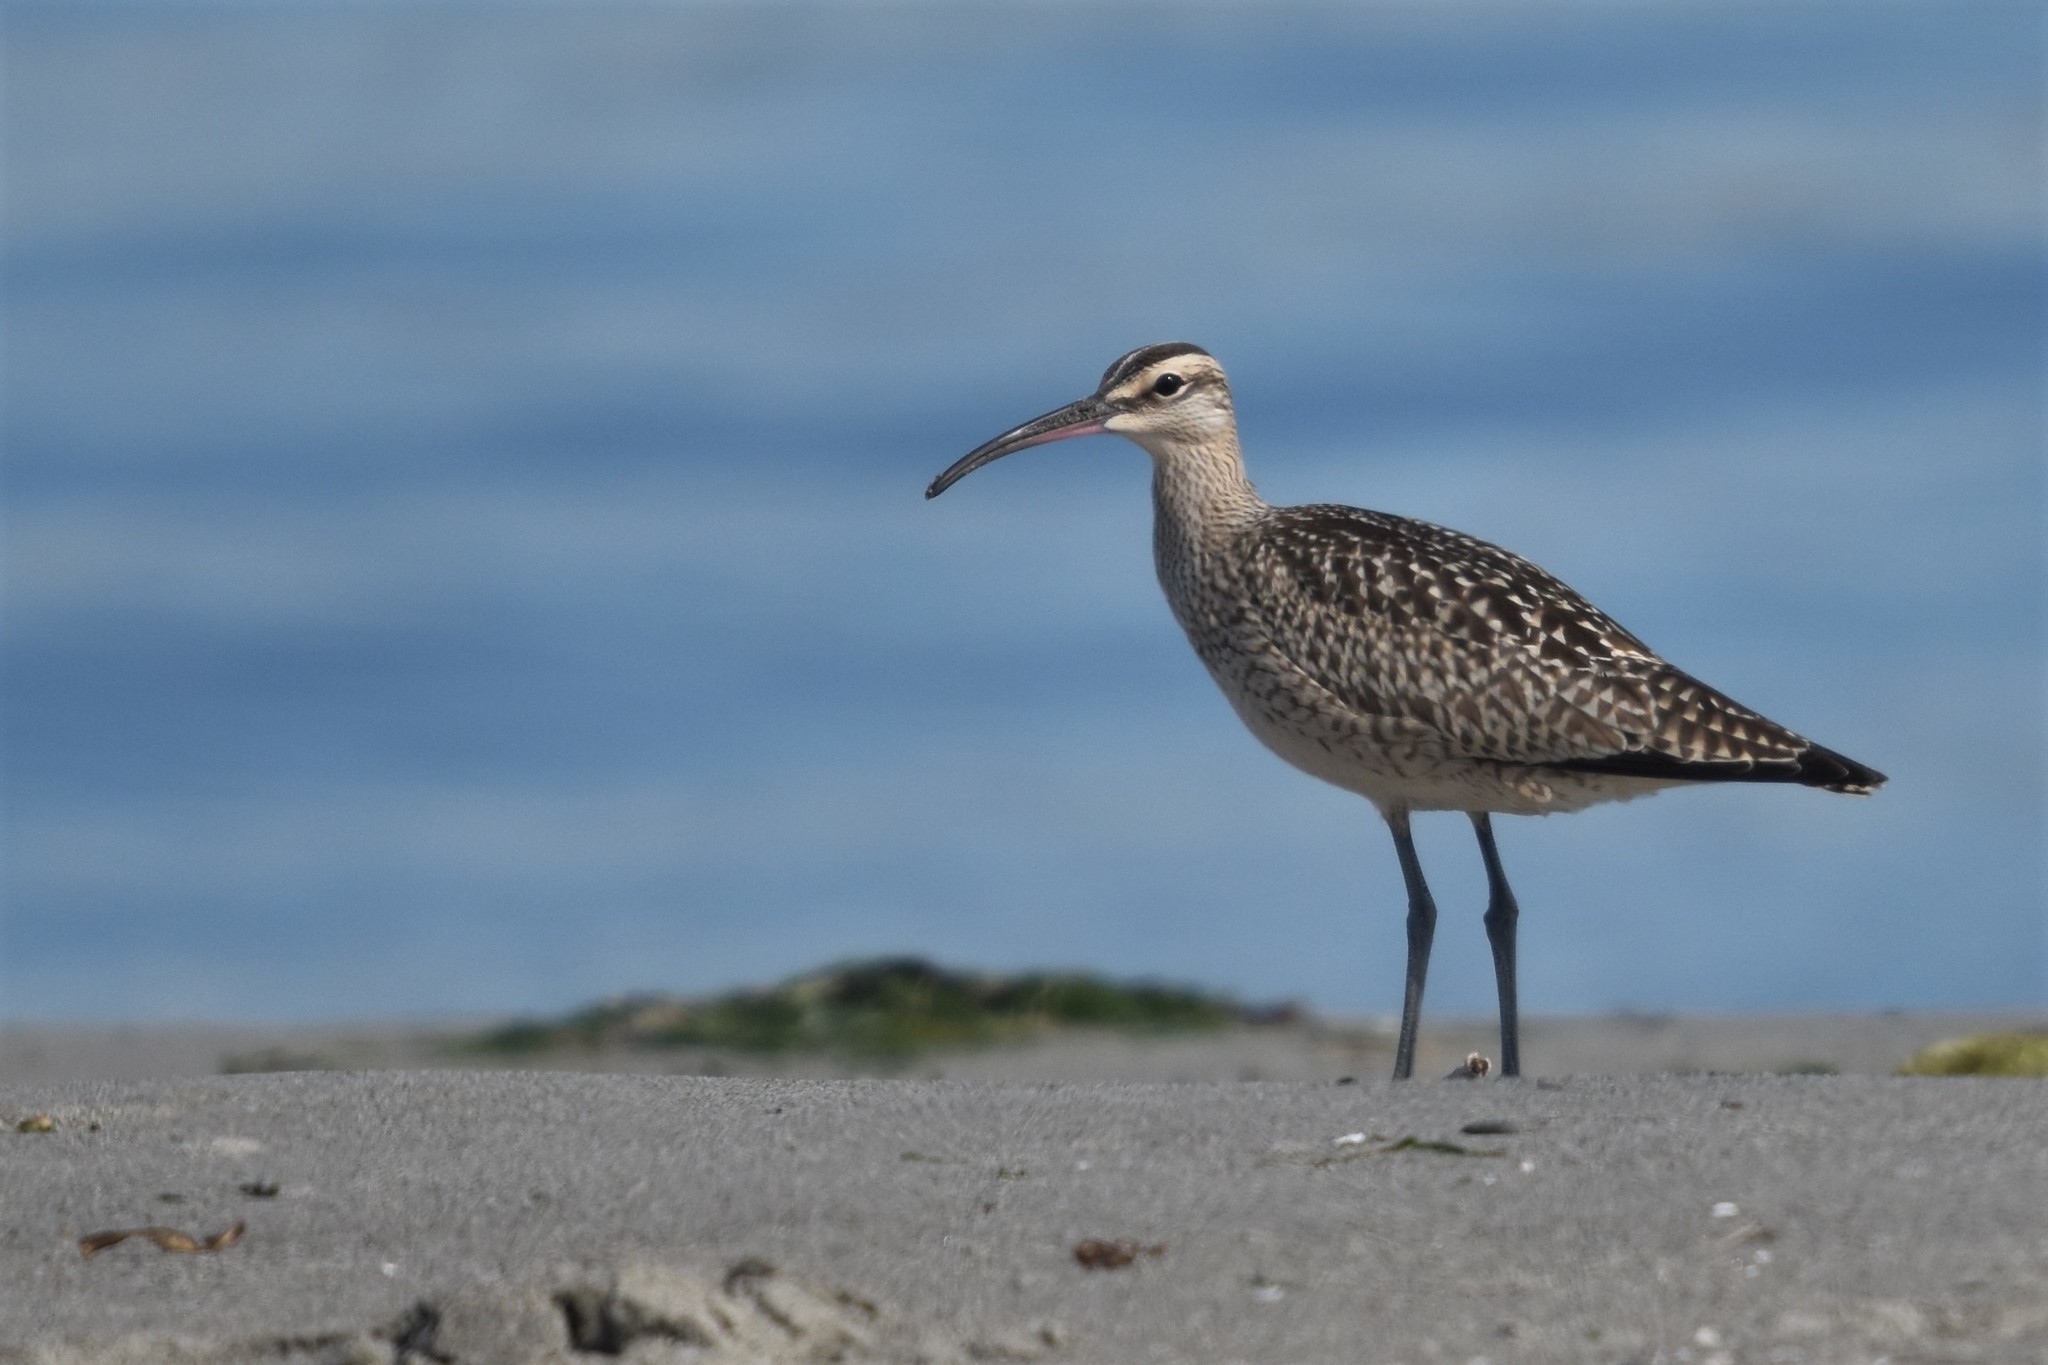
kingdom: Animalia
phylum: Chordata
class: Aves
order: Charadriiformes
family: Scolopacidae
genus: Numenius
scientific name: Numenius phaeopus
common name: Whimbrel
